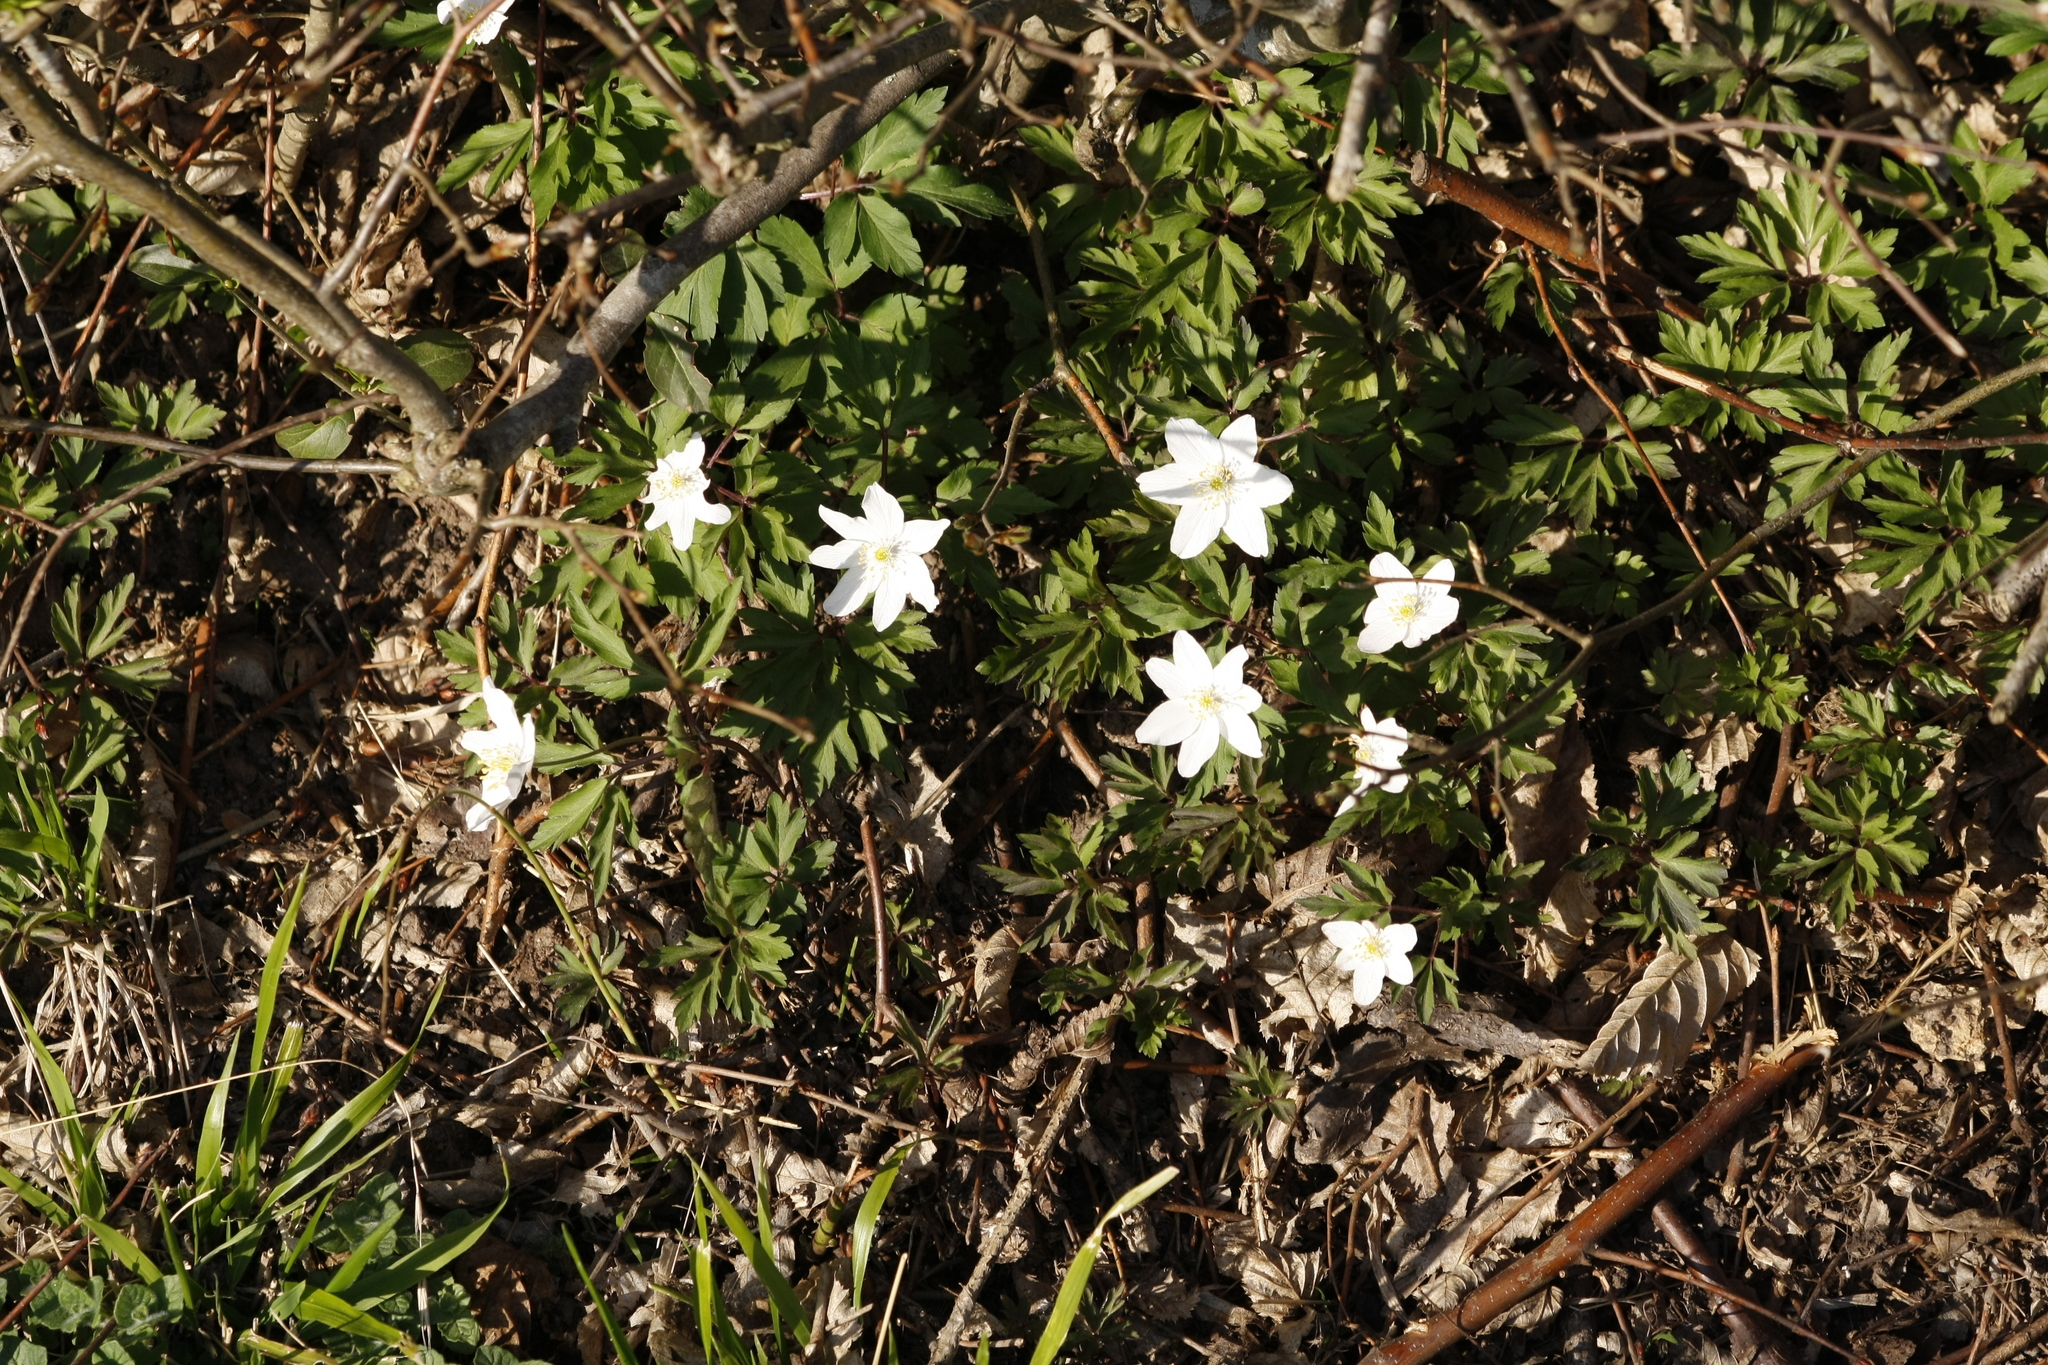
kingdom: Plantae
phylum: Tracheophyta
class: Magnoliopsida
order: Ranunculales
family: Ranunculaceae
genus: Anemone
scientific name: Anemone nemorosa
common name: Wood anemone
